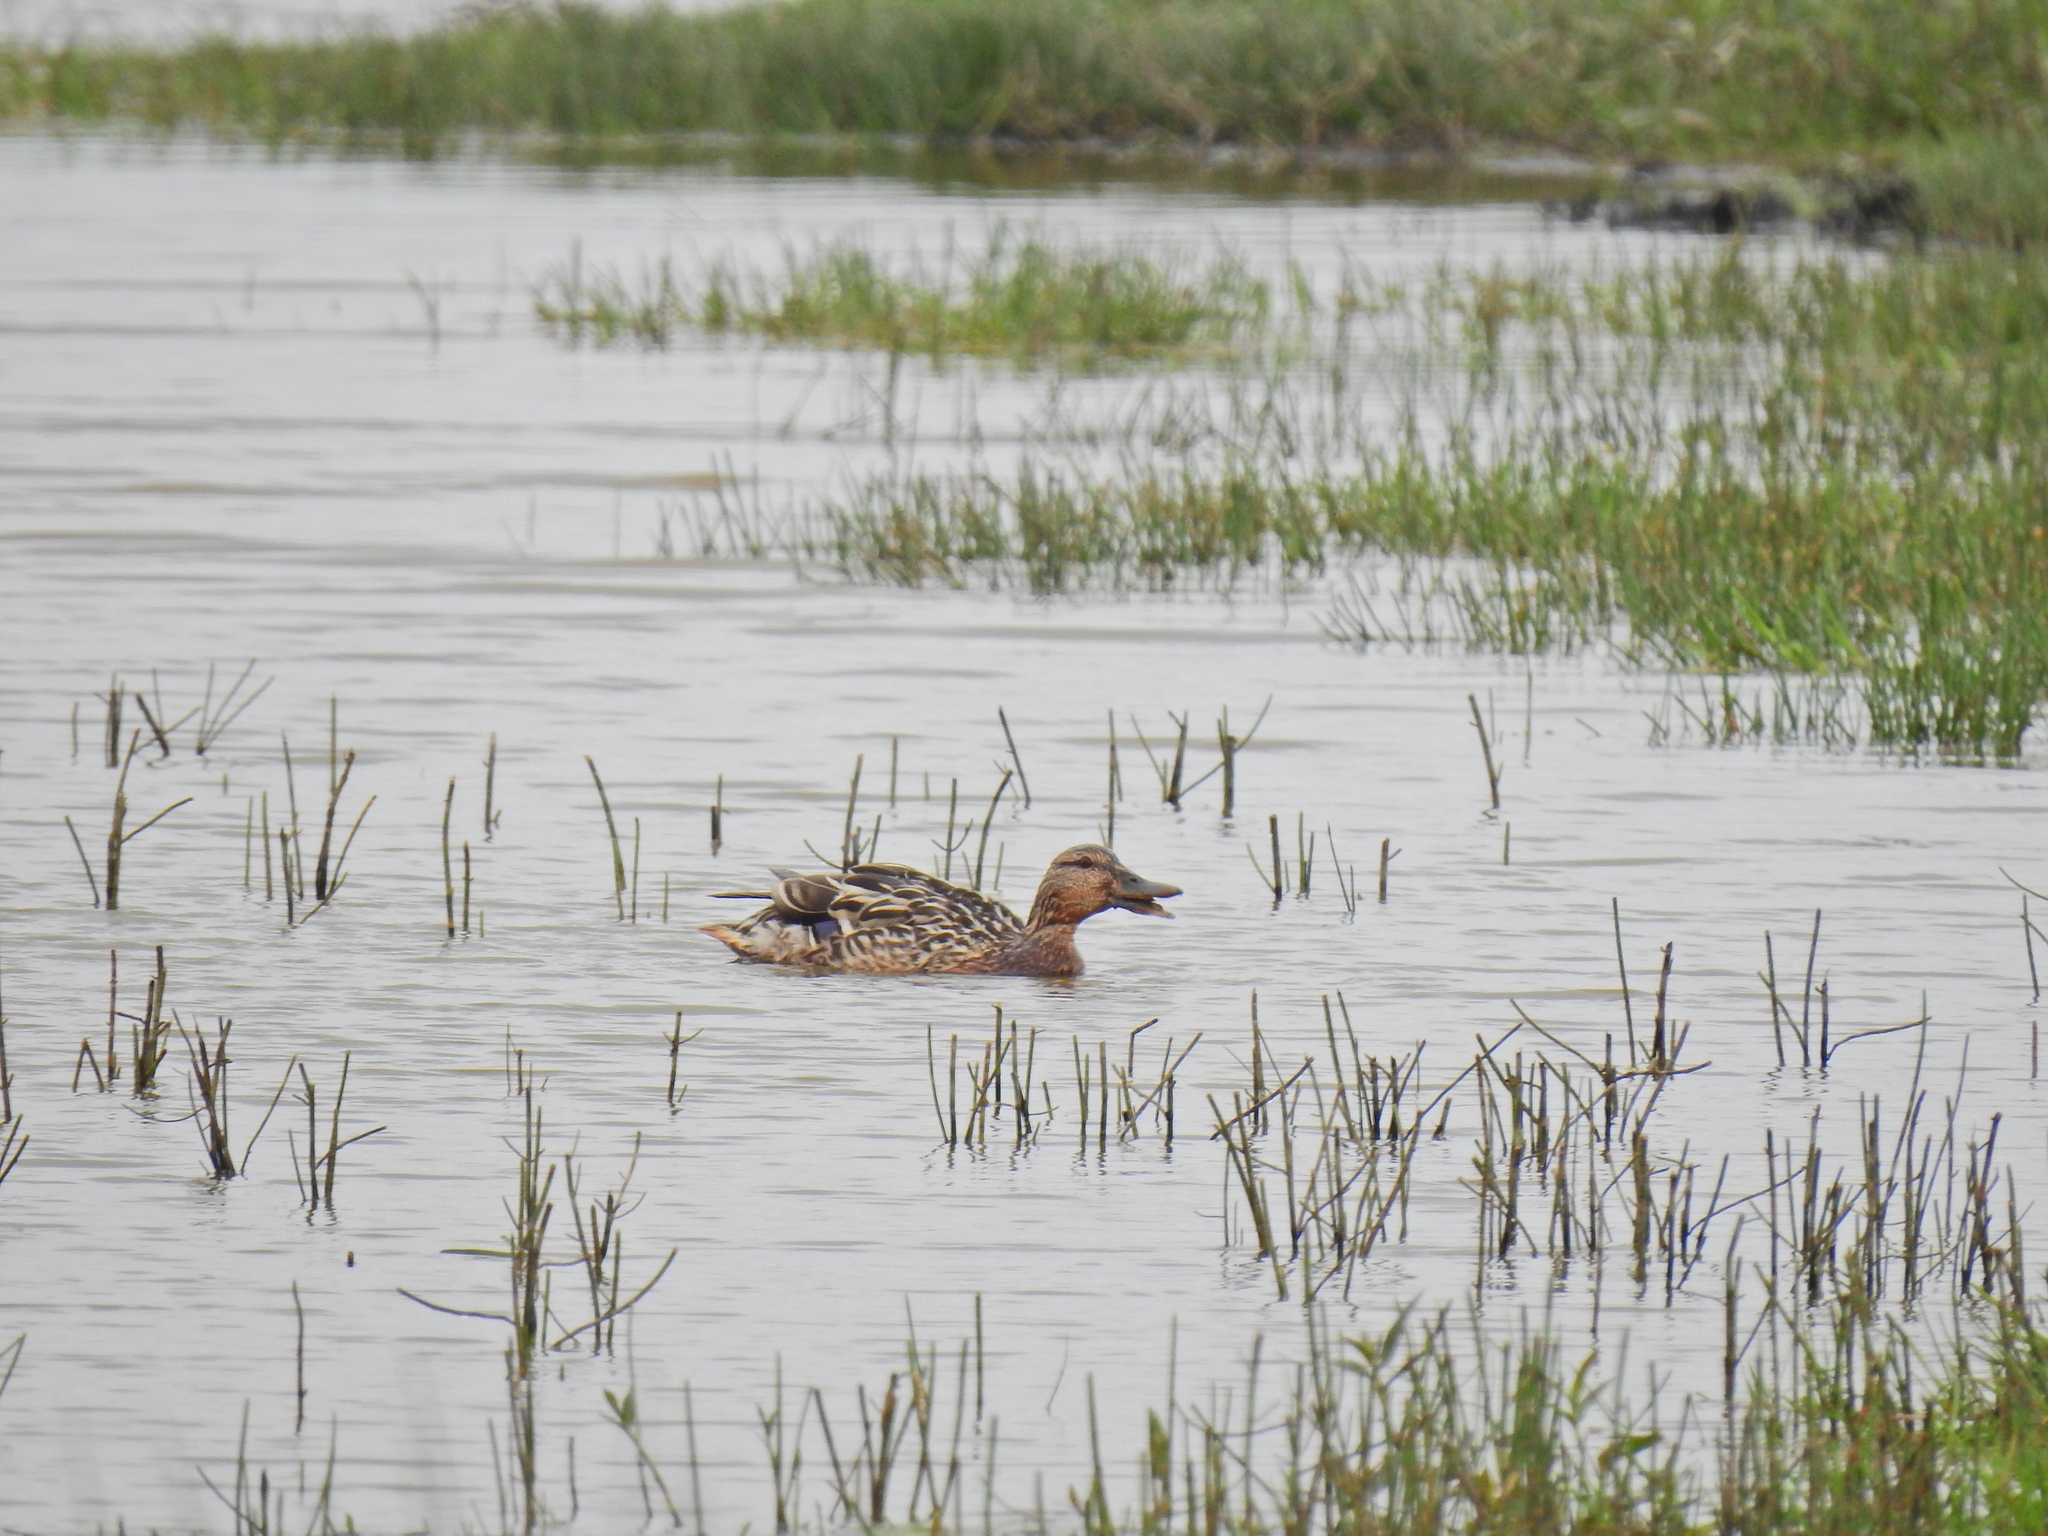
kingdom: Animalia
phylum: Chordata
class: Aves
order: Anseriformes
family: Anatidae
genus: Spatula
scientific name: Spatula clypeata
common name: Northern shoveler
